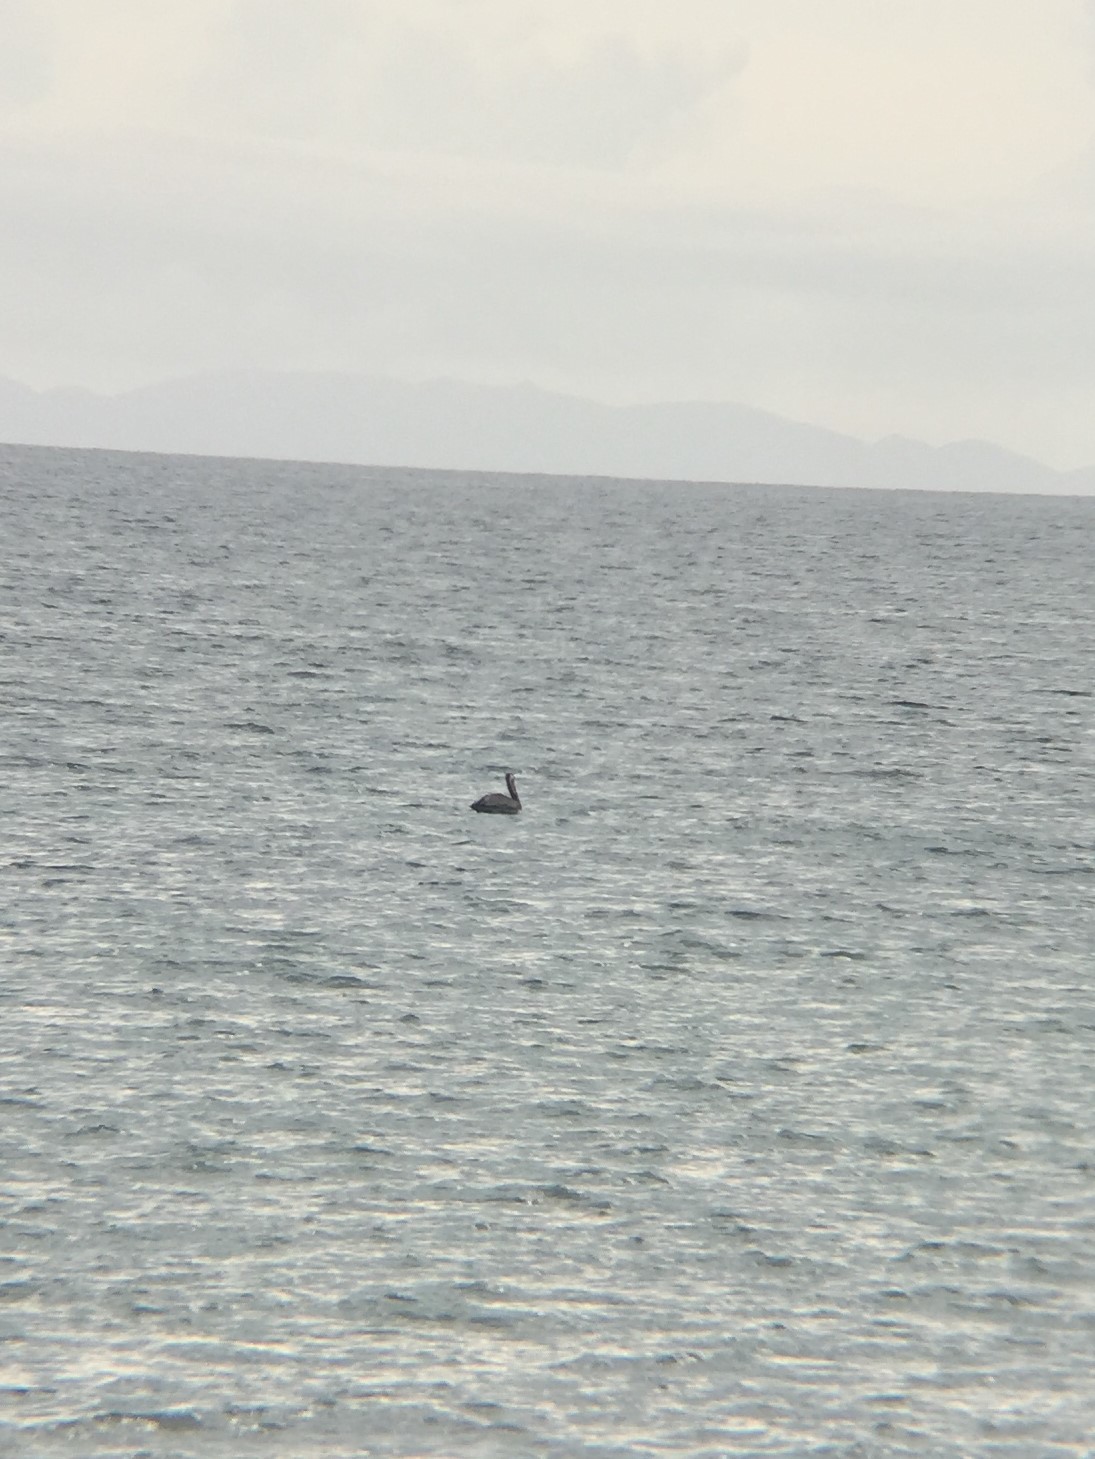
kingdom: Animalia
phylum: Chordata
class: Aves
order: Pelecaniformes
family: Pelecanidae
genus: Pelecanus
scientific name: Pelecanus occidentalis
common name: Brown pelican
